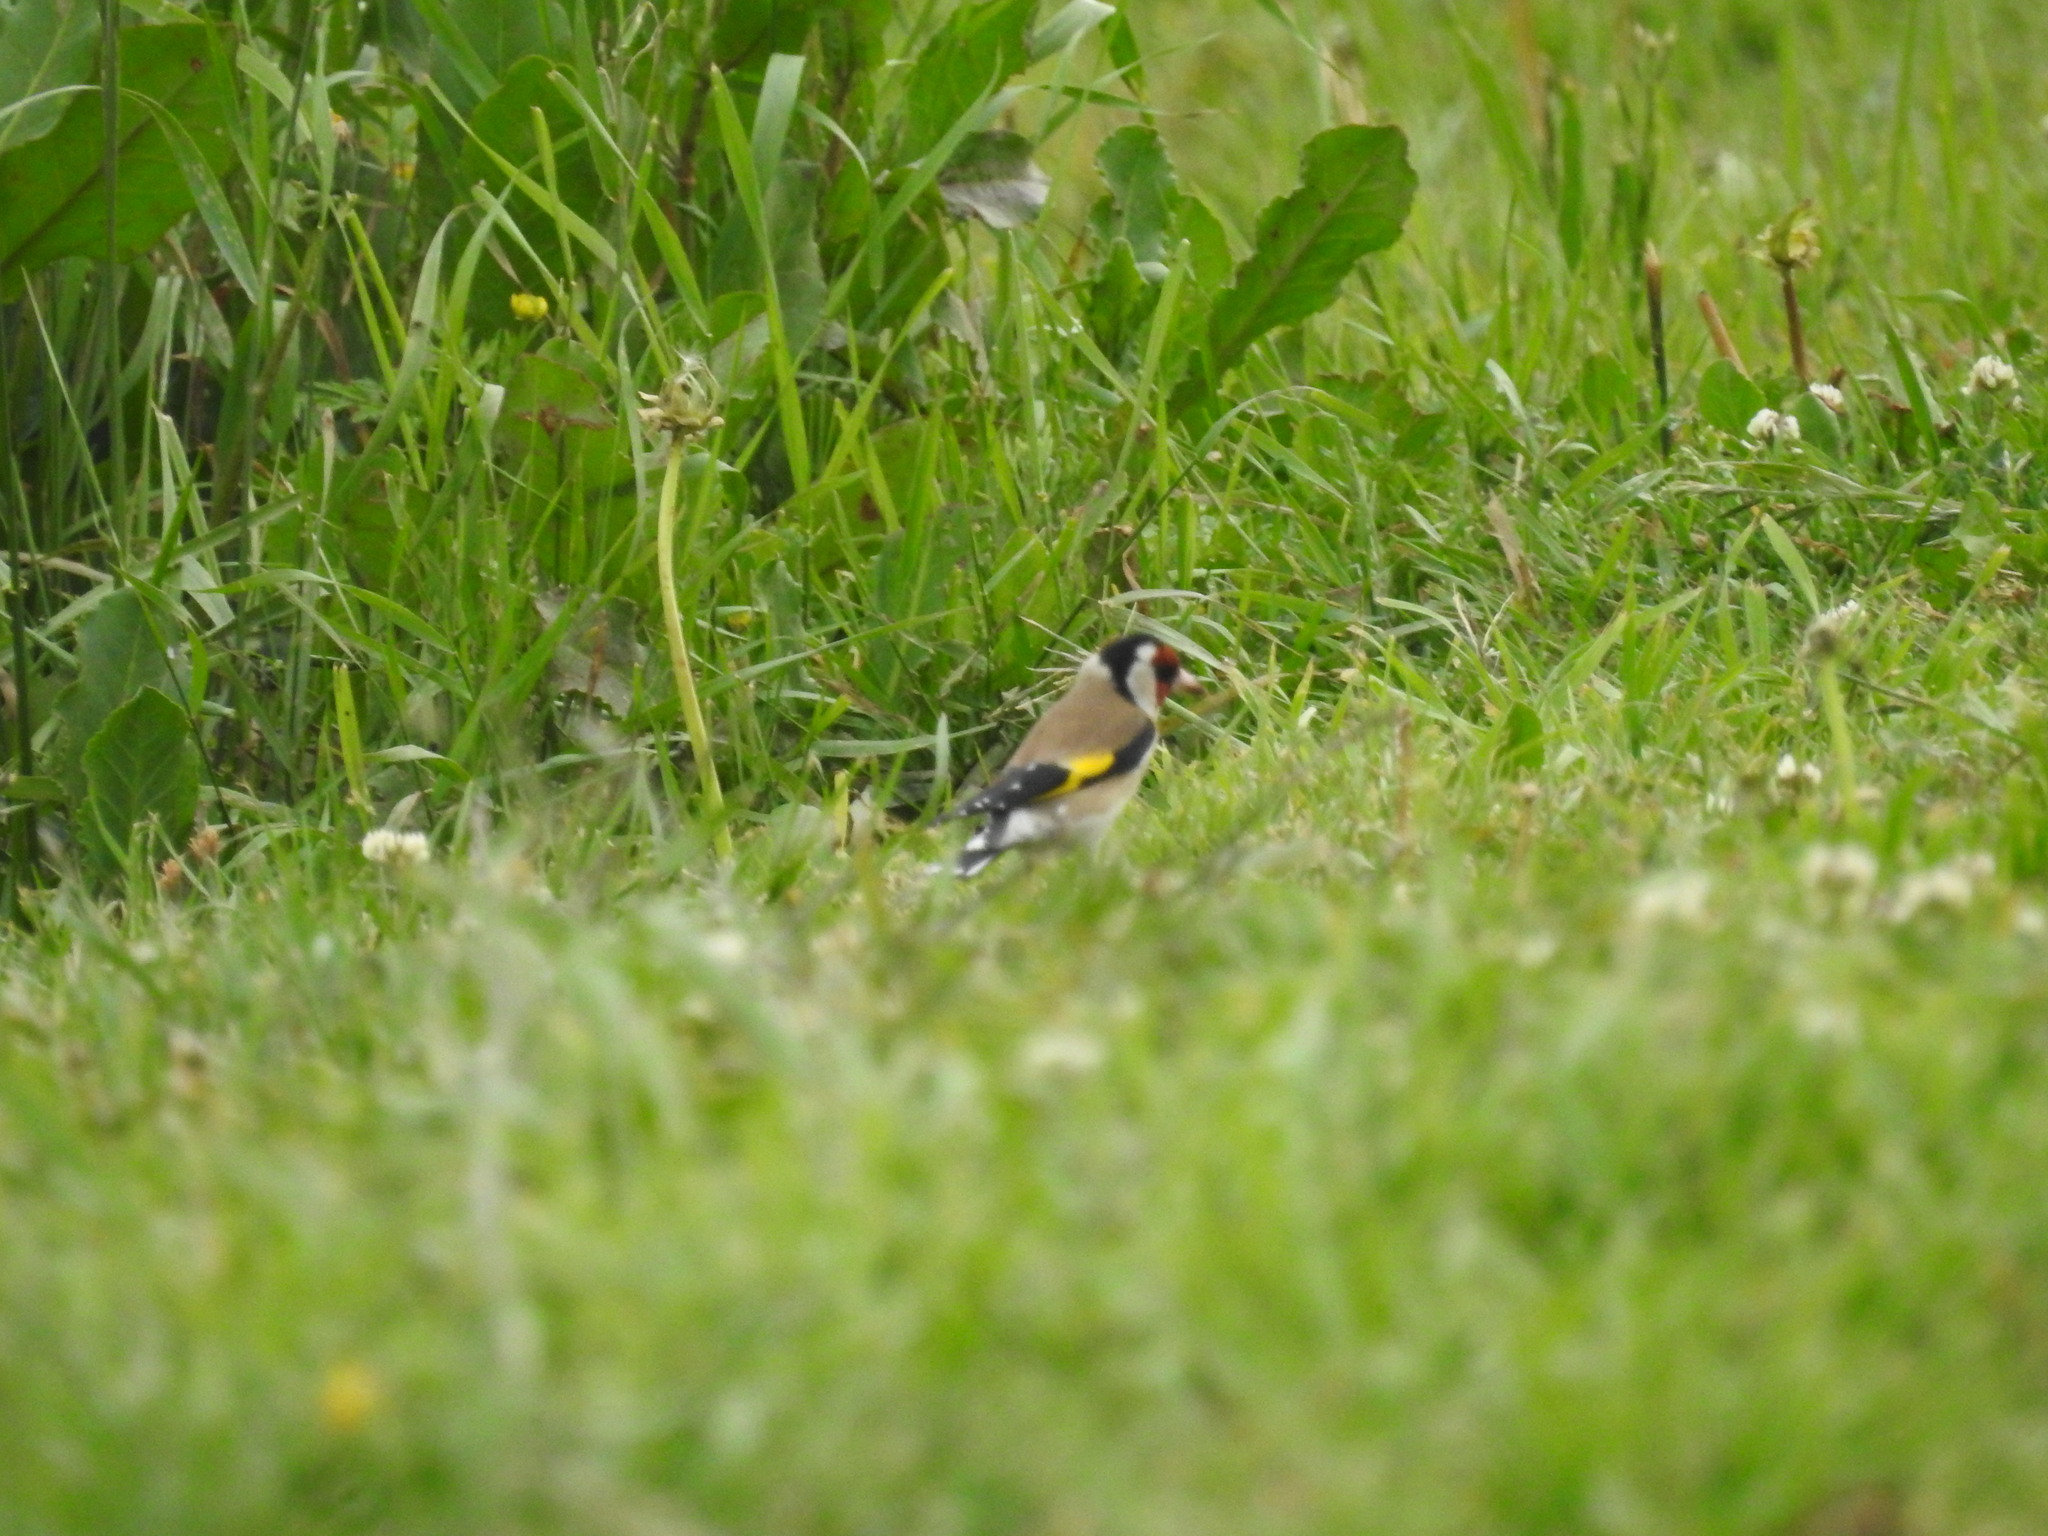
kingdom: Animalia
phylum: Chordata
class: Aves
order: Passeriformes
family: Fringillidae
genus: Carduelis
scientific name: Carduelis carduelis
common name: European goldfinch
